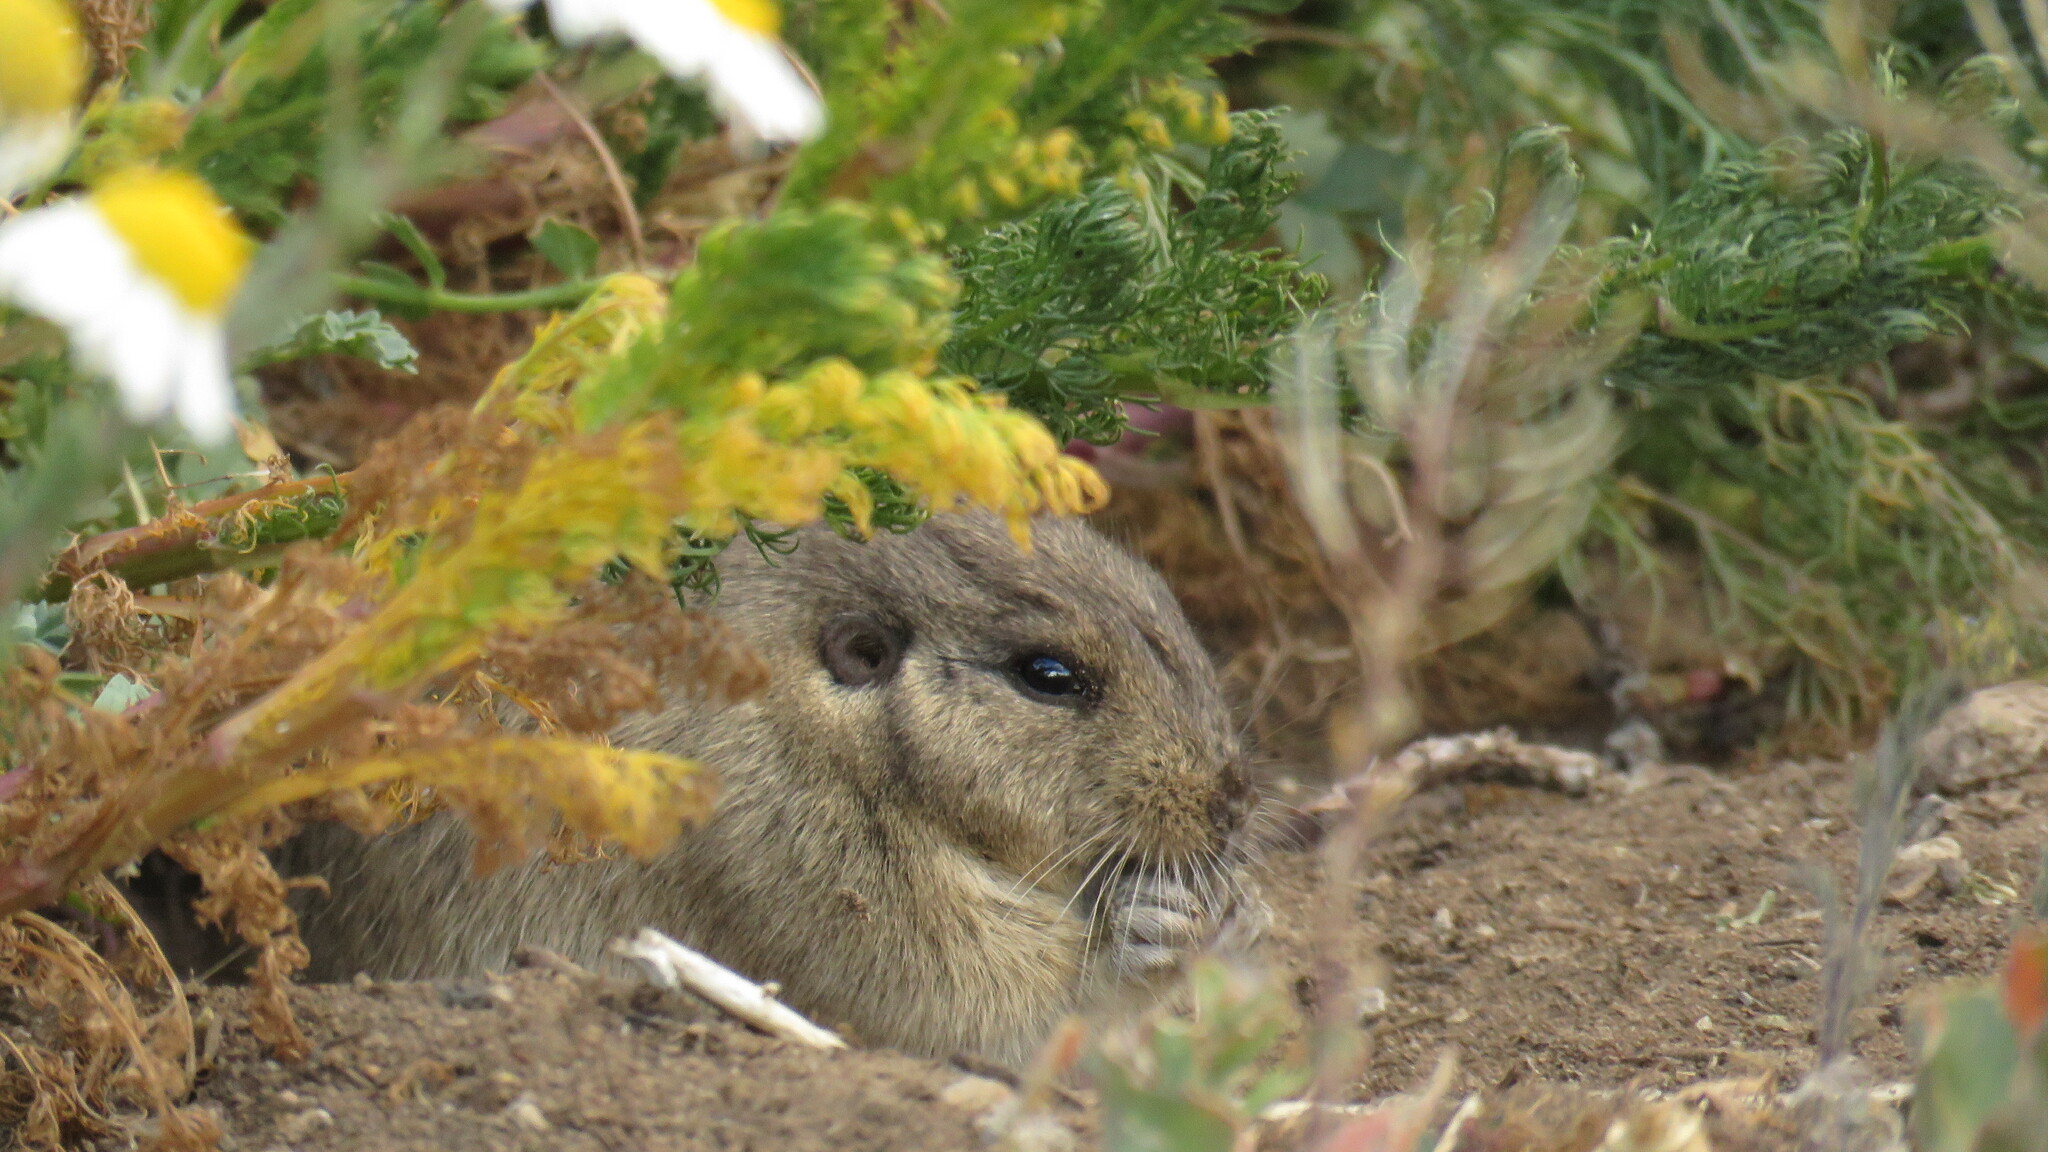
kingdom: Animalia
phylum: Chordata
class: Mammalia
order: Rodentia
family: Ctenomyidae
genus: Ctenomys
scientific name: Ctenomys sericeus
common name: Silky tuco-tuco
